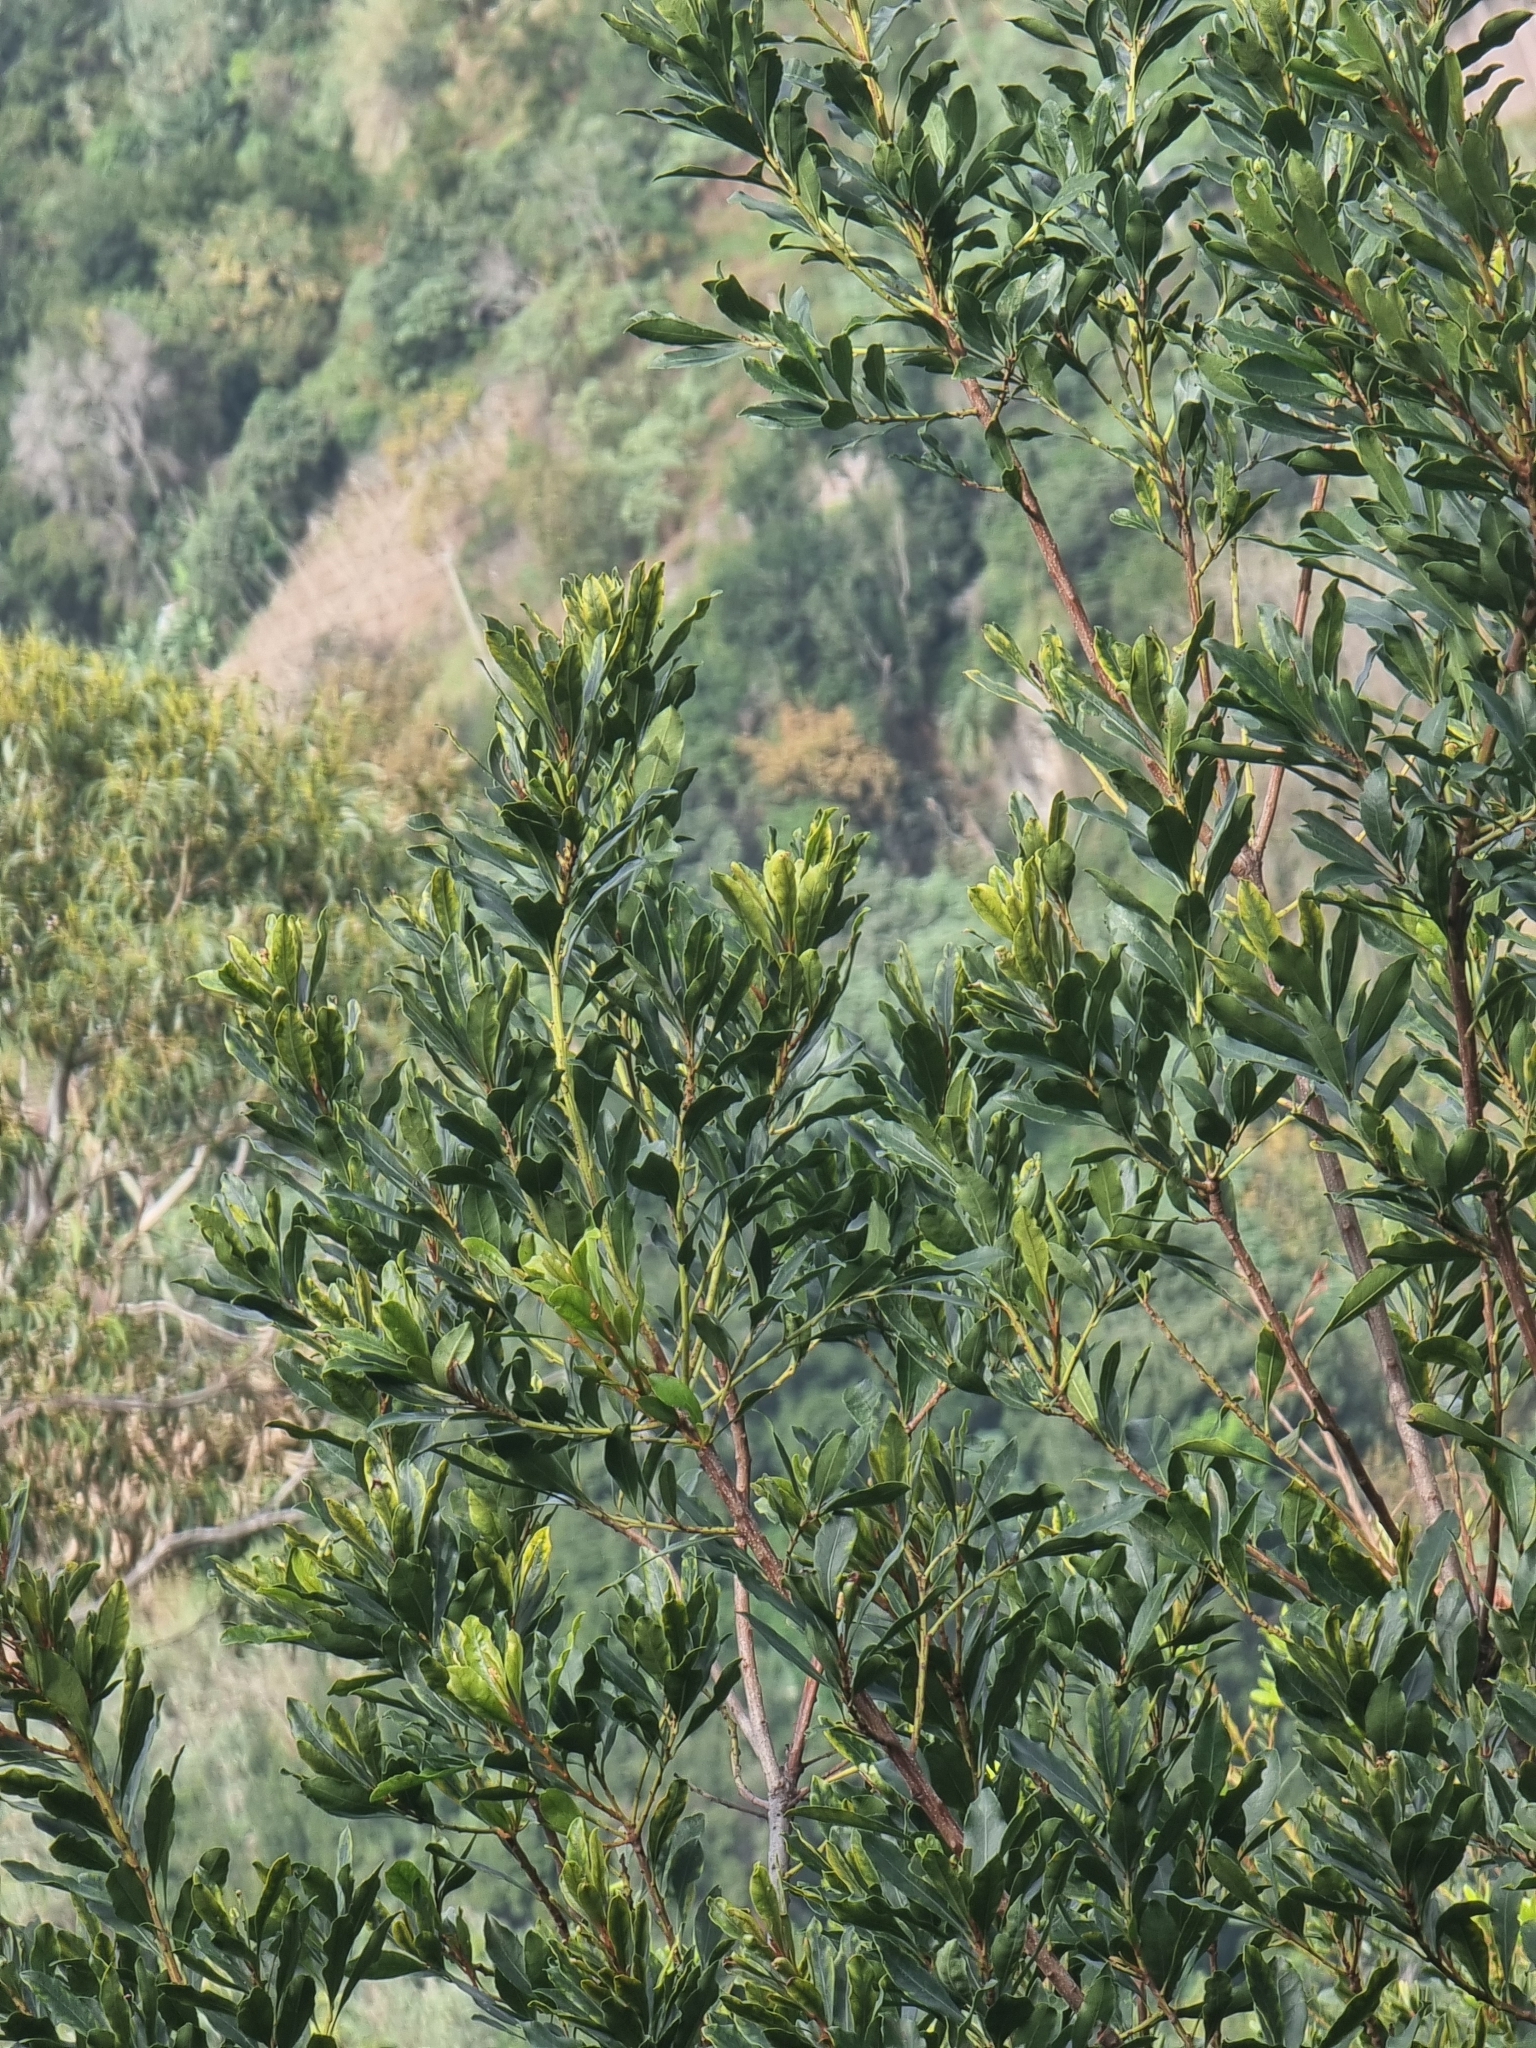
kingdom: Plantae
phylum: Tracheophyta
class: Magnoliopsida
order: Fagales
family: Myricaceae
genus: Morella
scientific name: Morella faya
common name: Firetree
